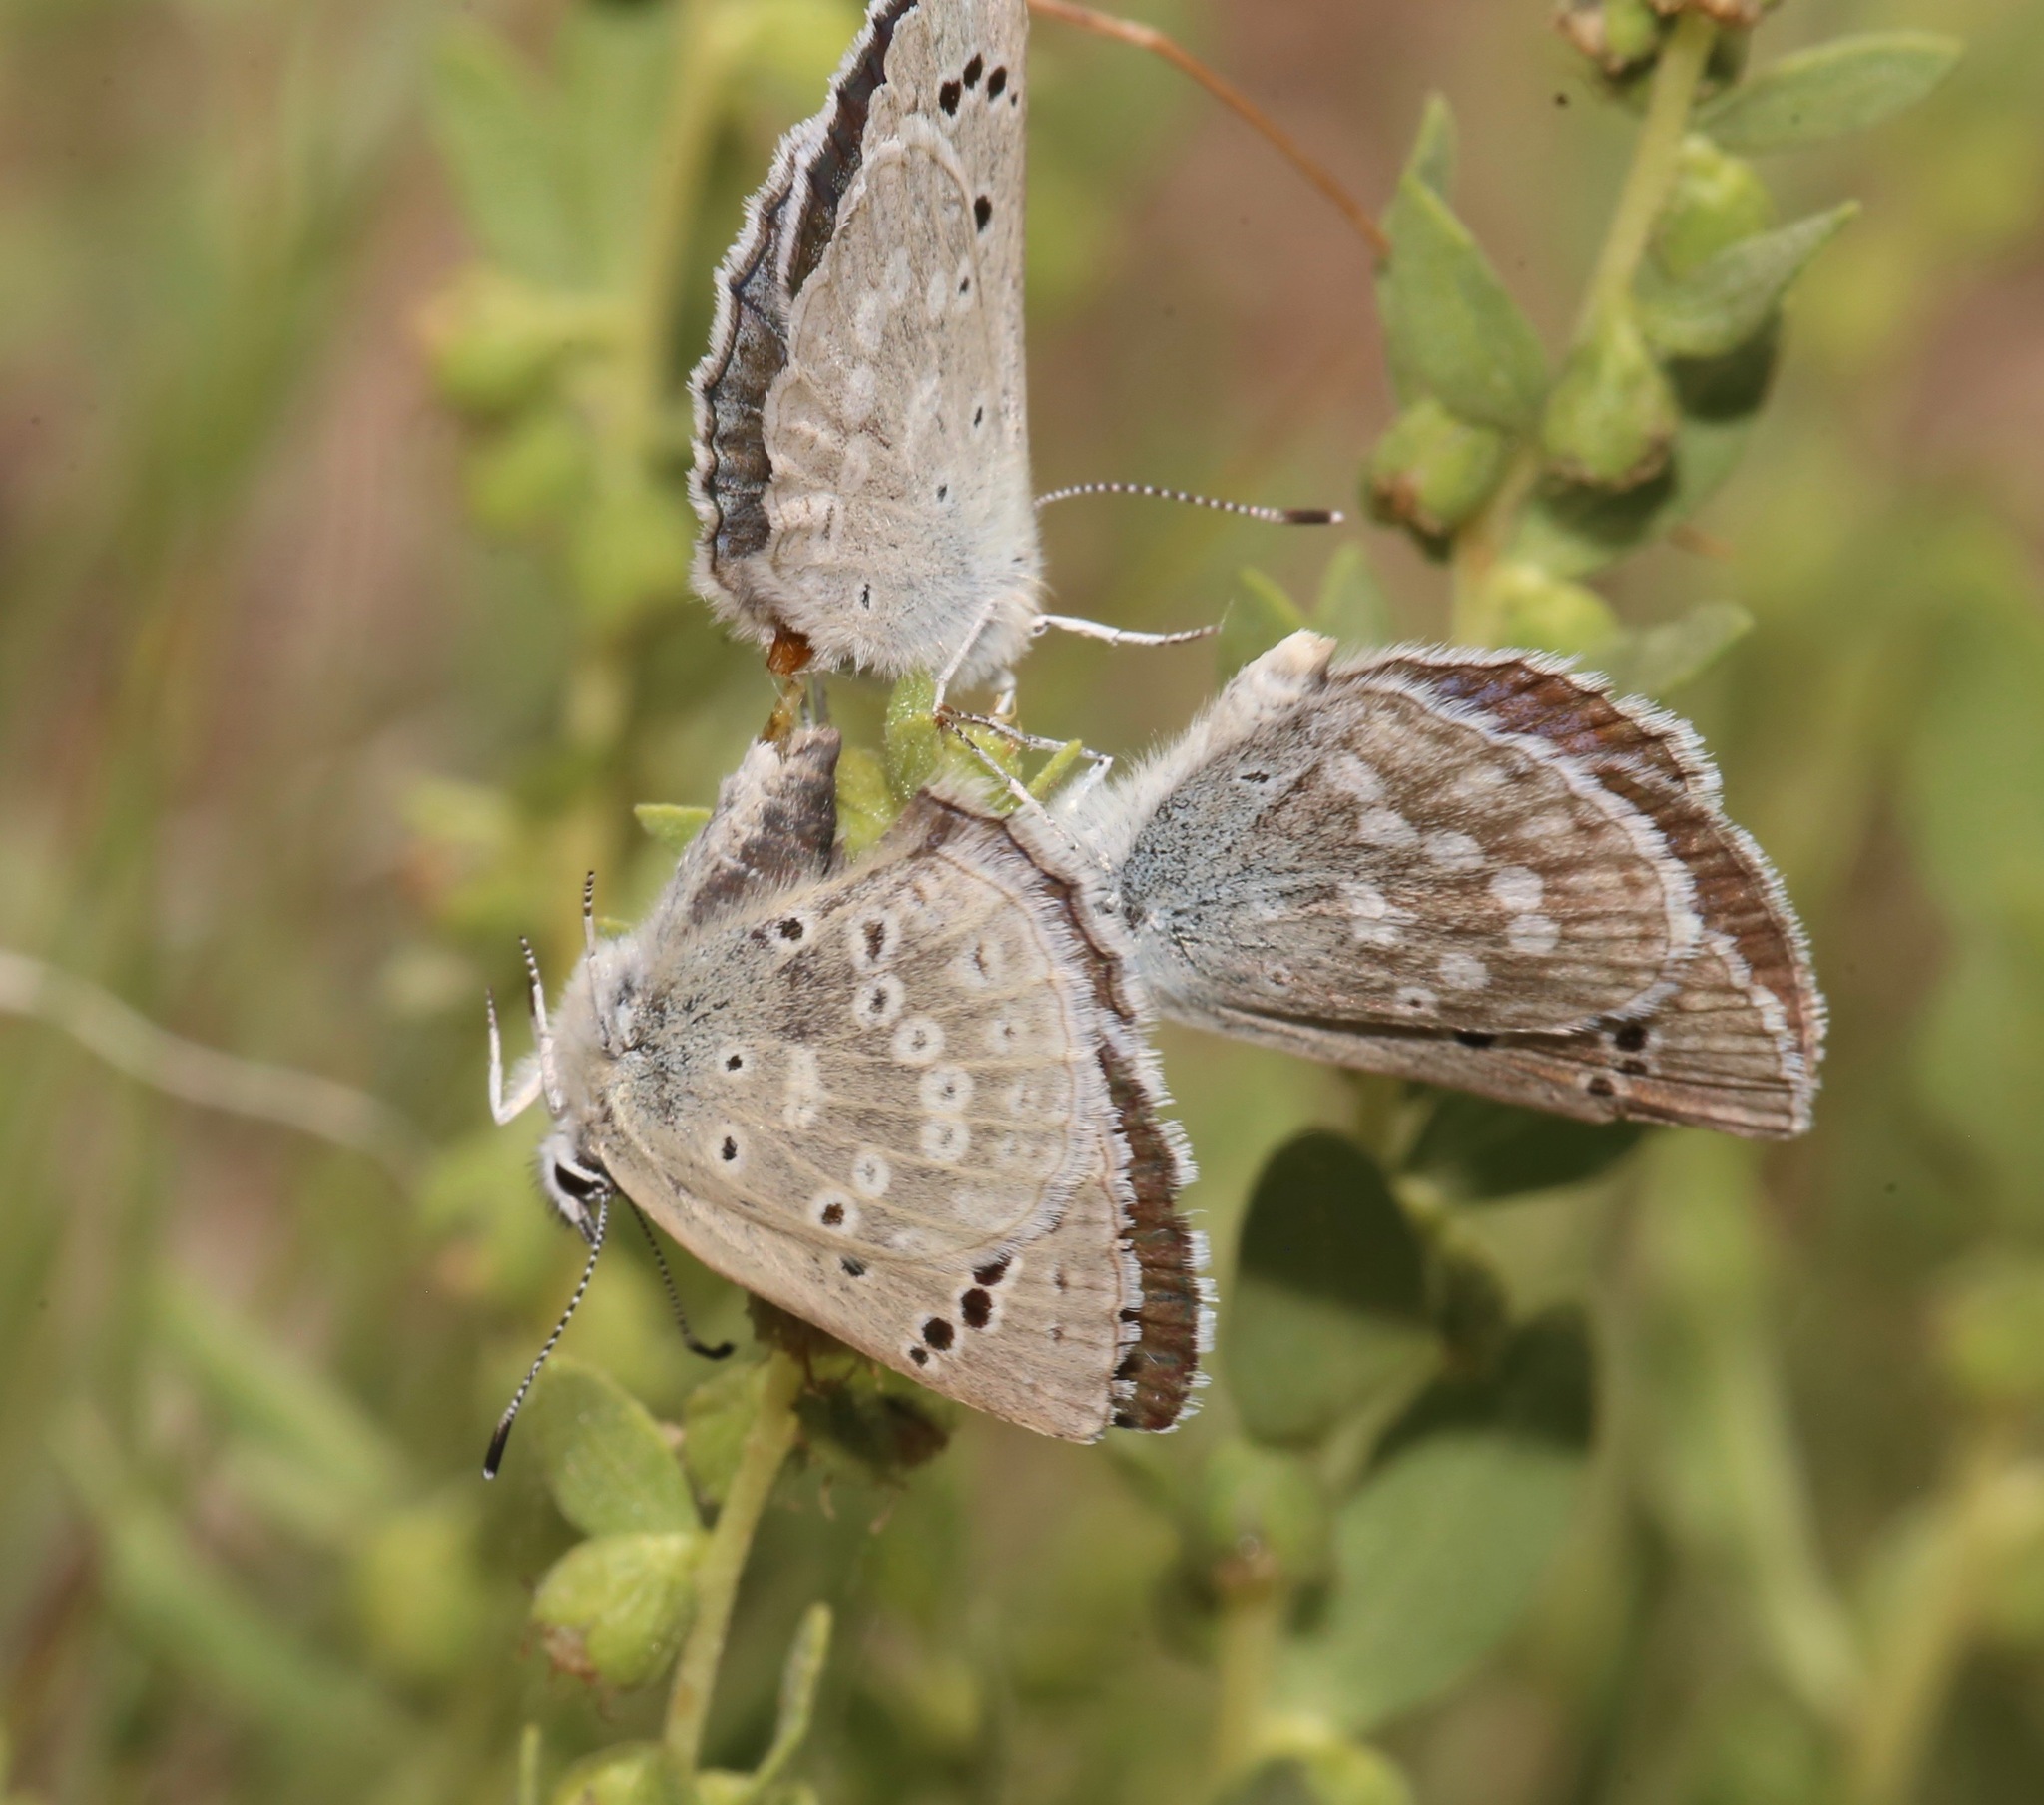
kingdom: Animalia
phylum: Arthropoda
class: Insecta
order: Lepidoptera
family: Lycaenidae
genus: Icaricia
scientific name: Icaricia icarioides
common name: Boisduval's blue
